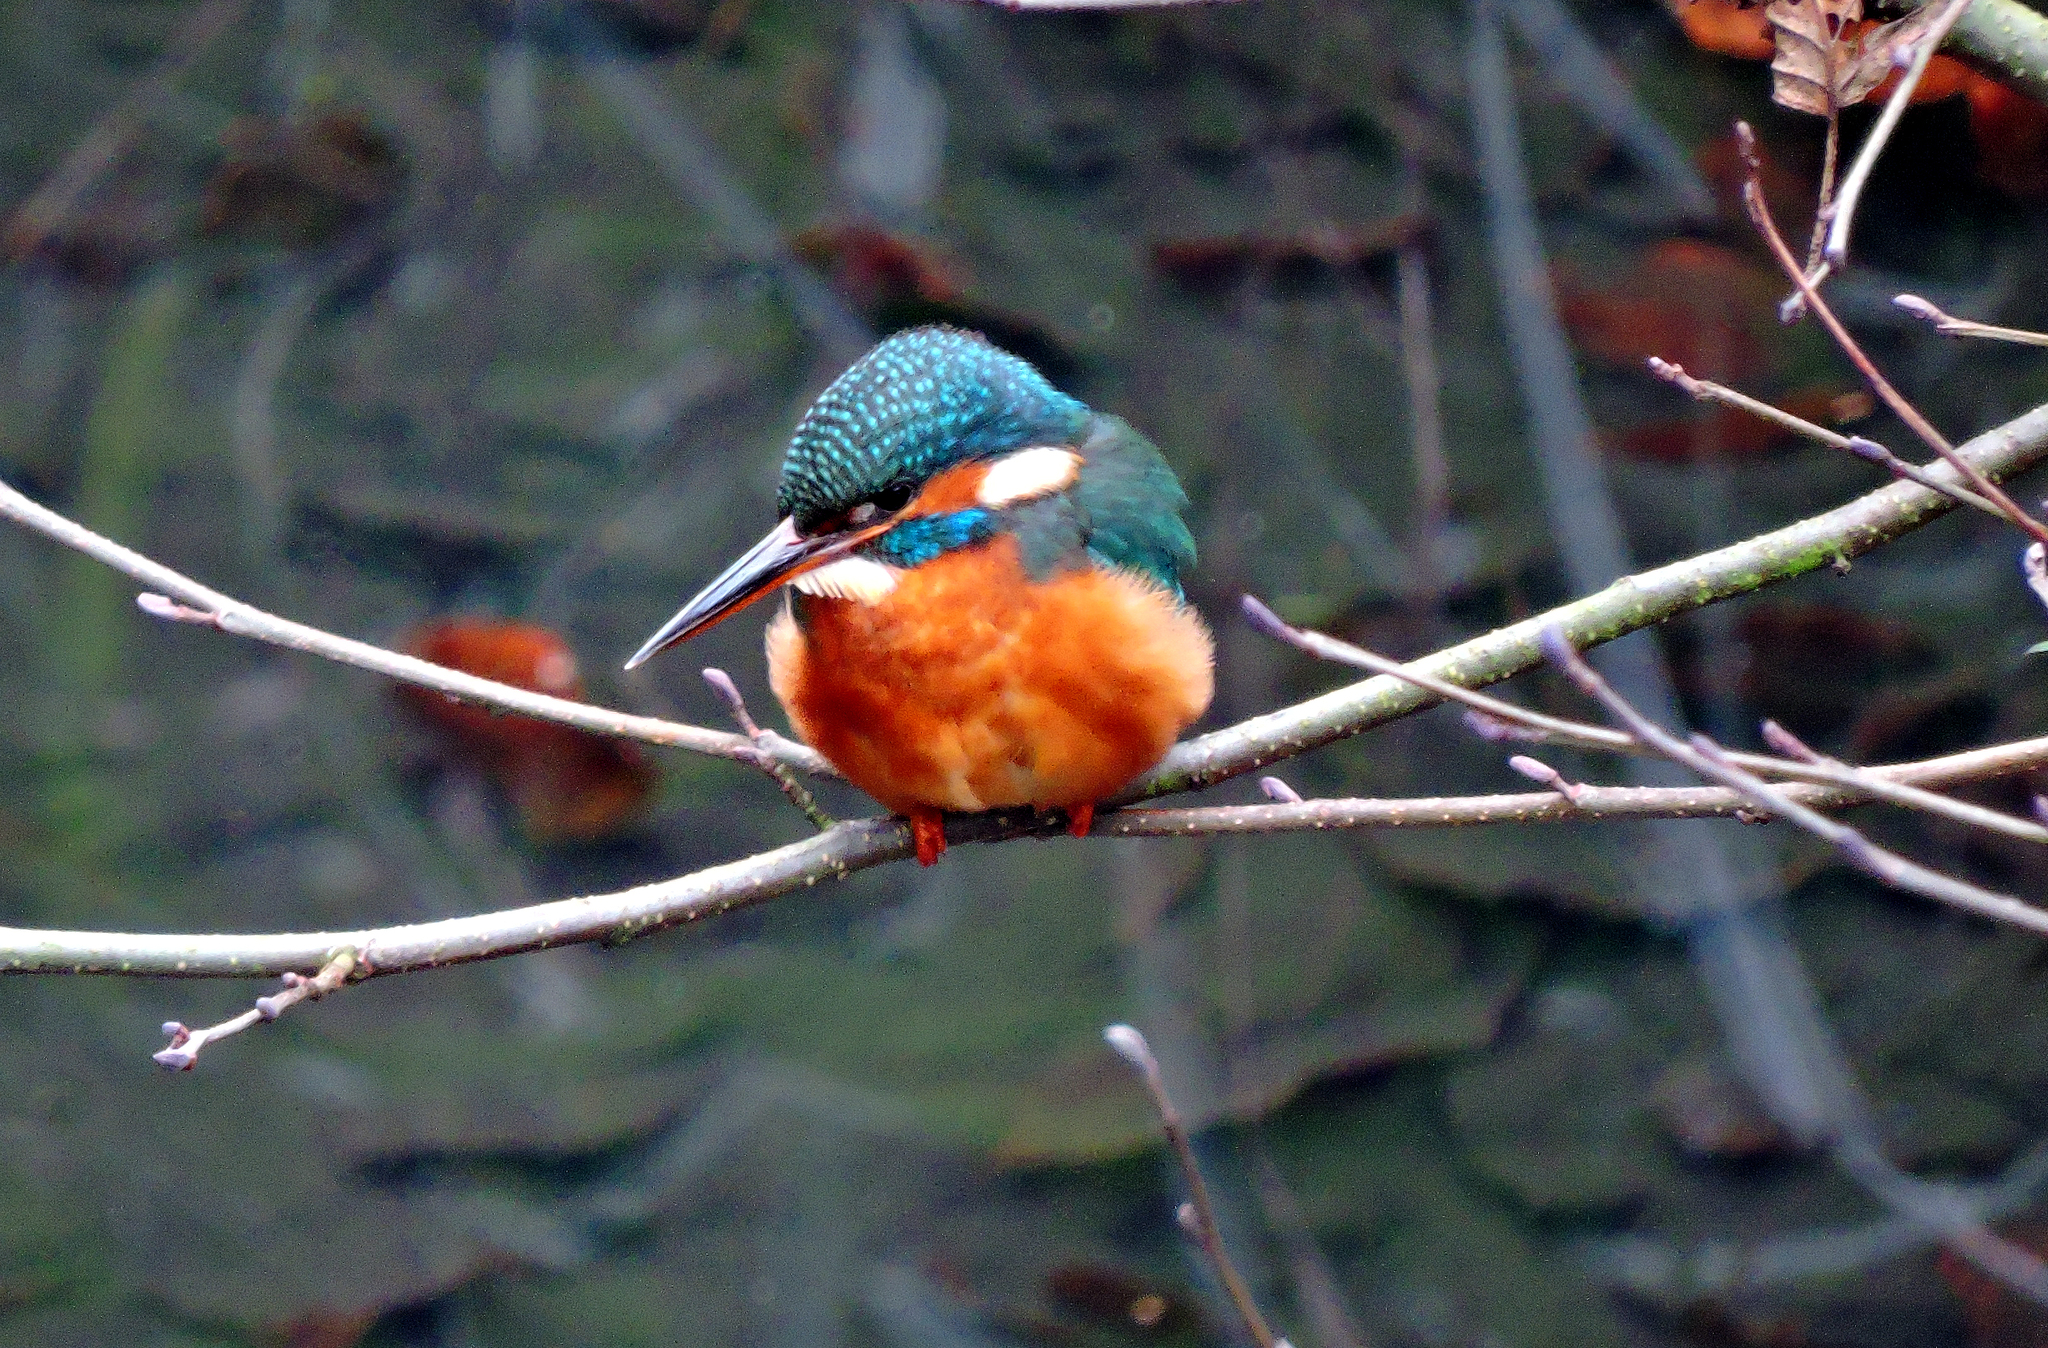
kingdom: Animalia
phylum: Chordata
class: Aves
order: Coraciiformes
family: Alcedinidae
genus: Alcedo
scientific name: Alcedo atthis
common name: Common kingfisher
